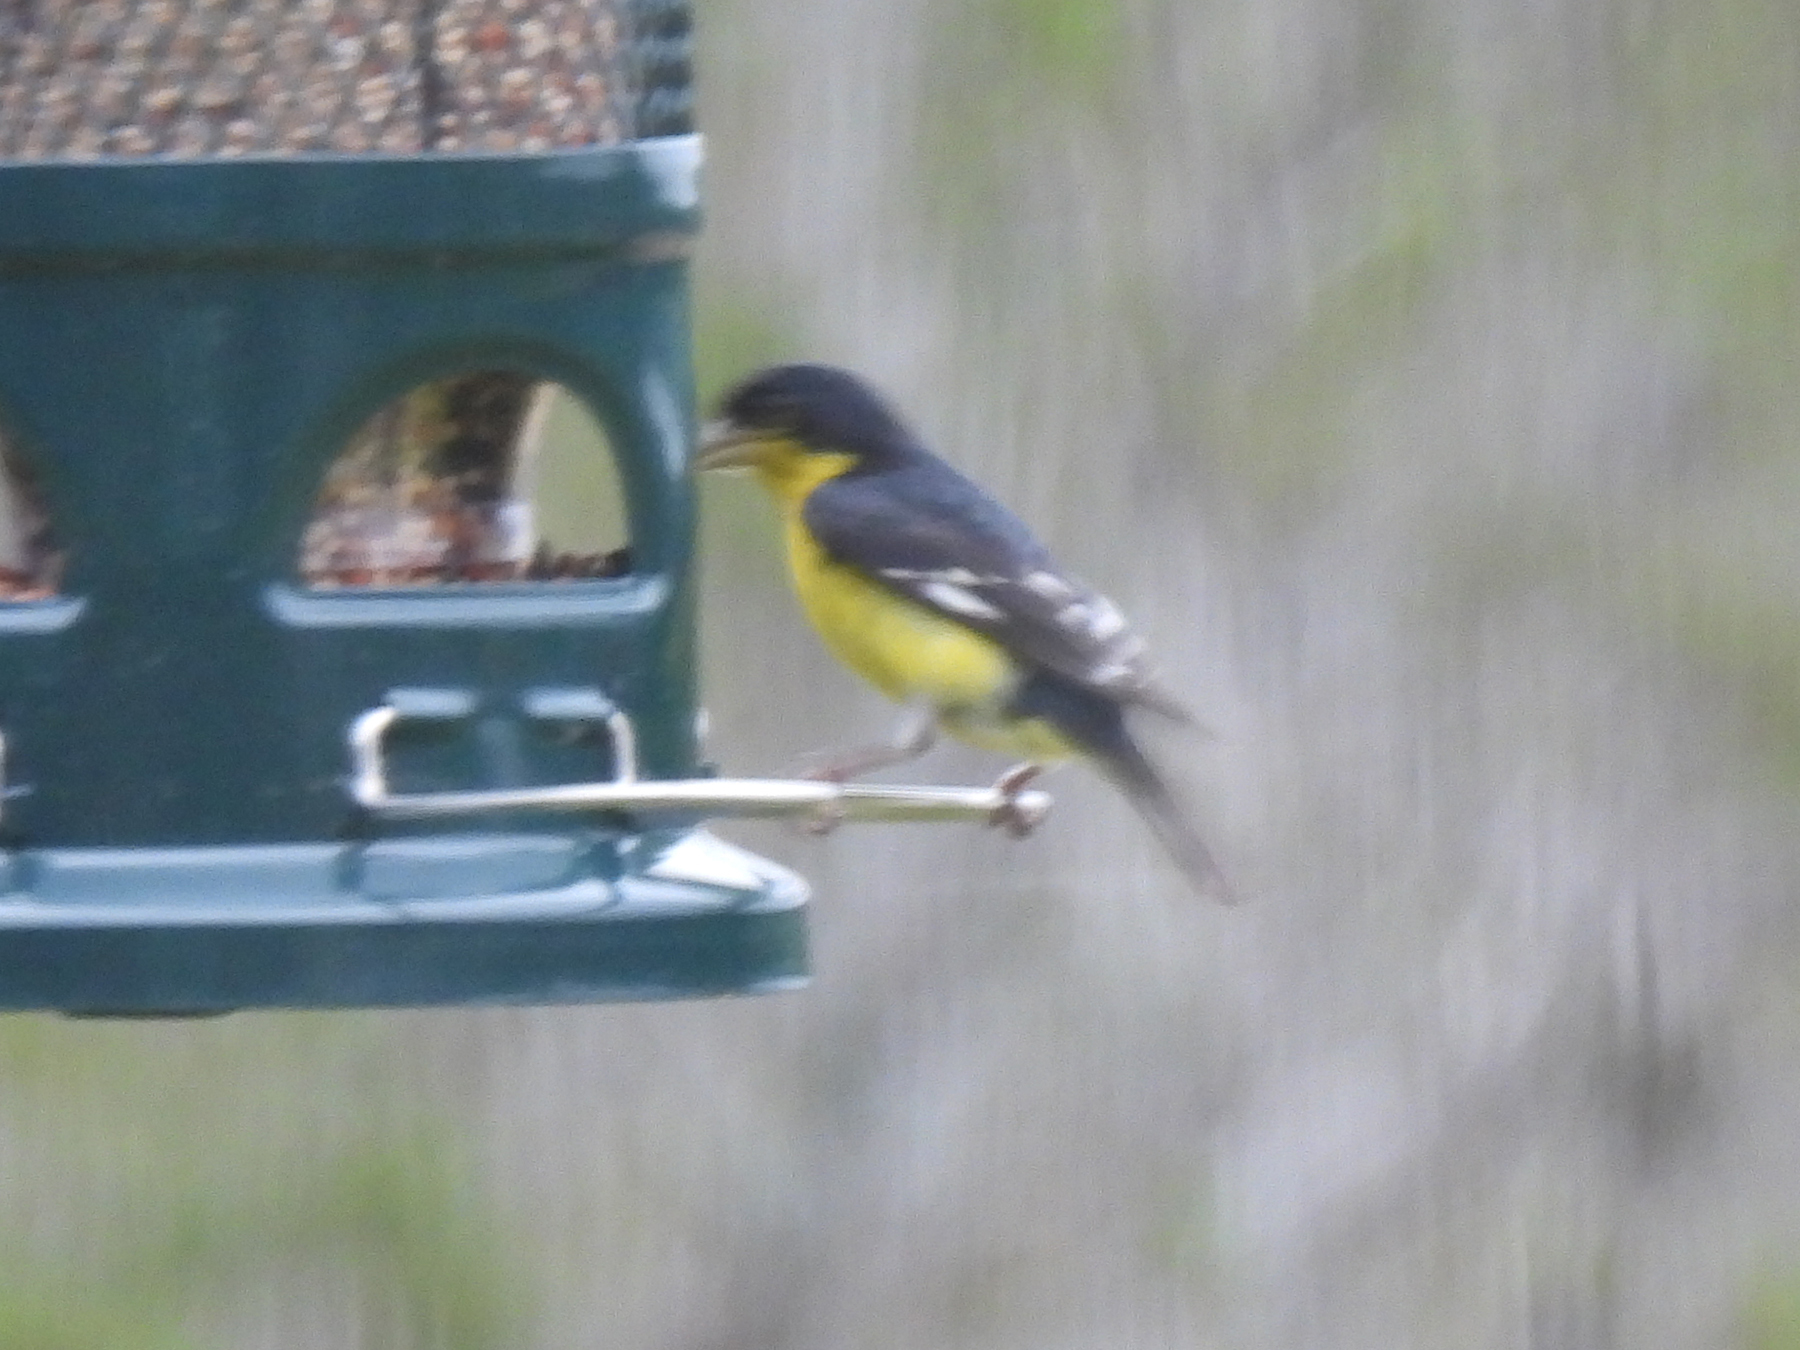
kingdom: Animalia
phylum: Chordata
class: Aves
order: Passeriformes
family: Fringillidae
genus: Spinus
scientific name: Spinus psaltria
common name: Lesser goldfinch
